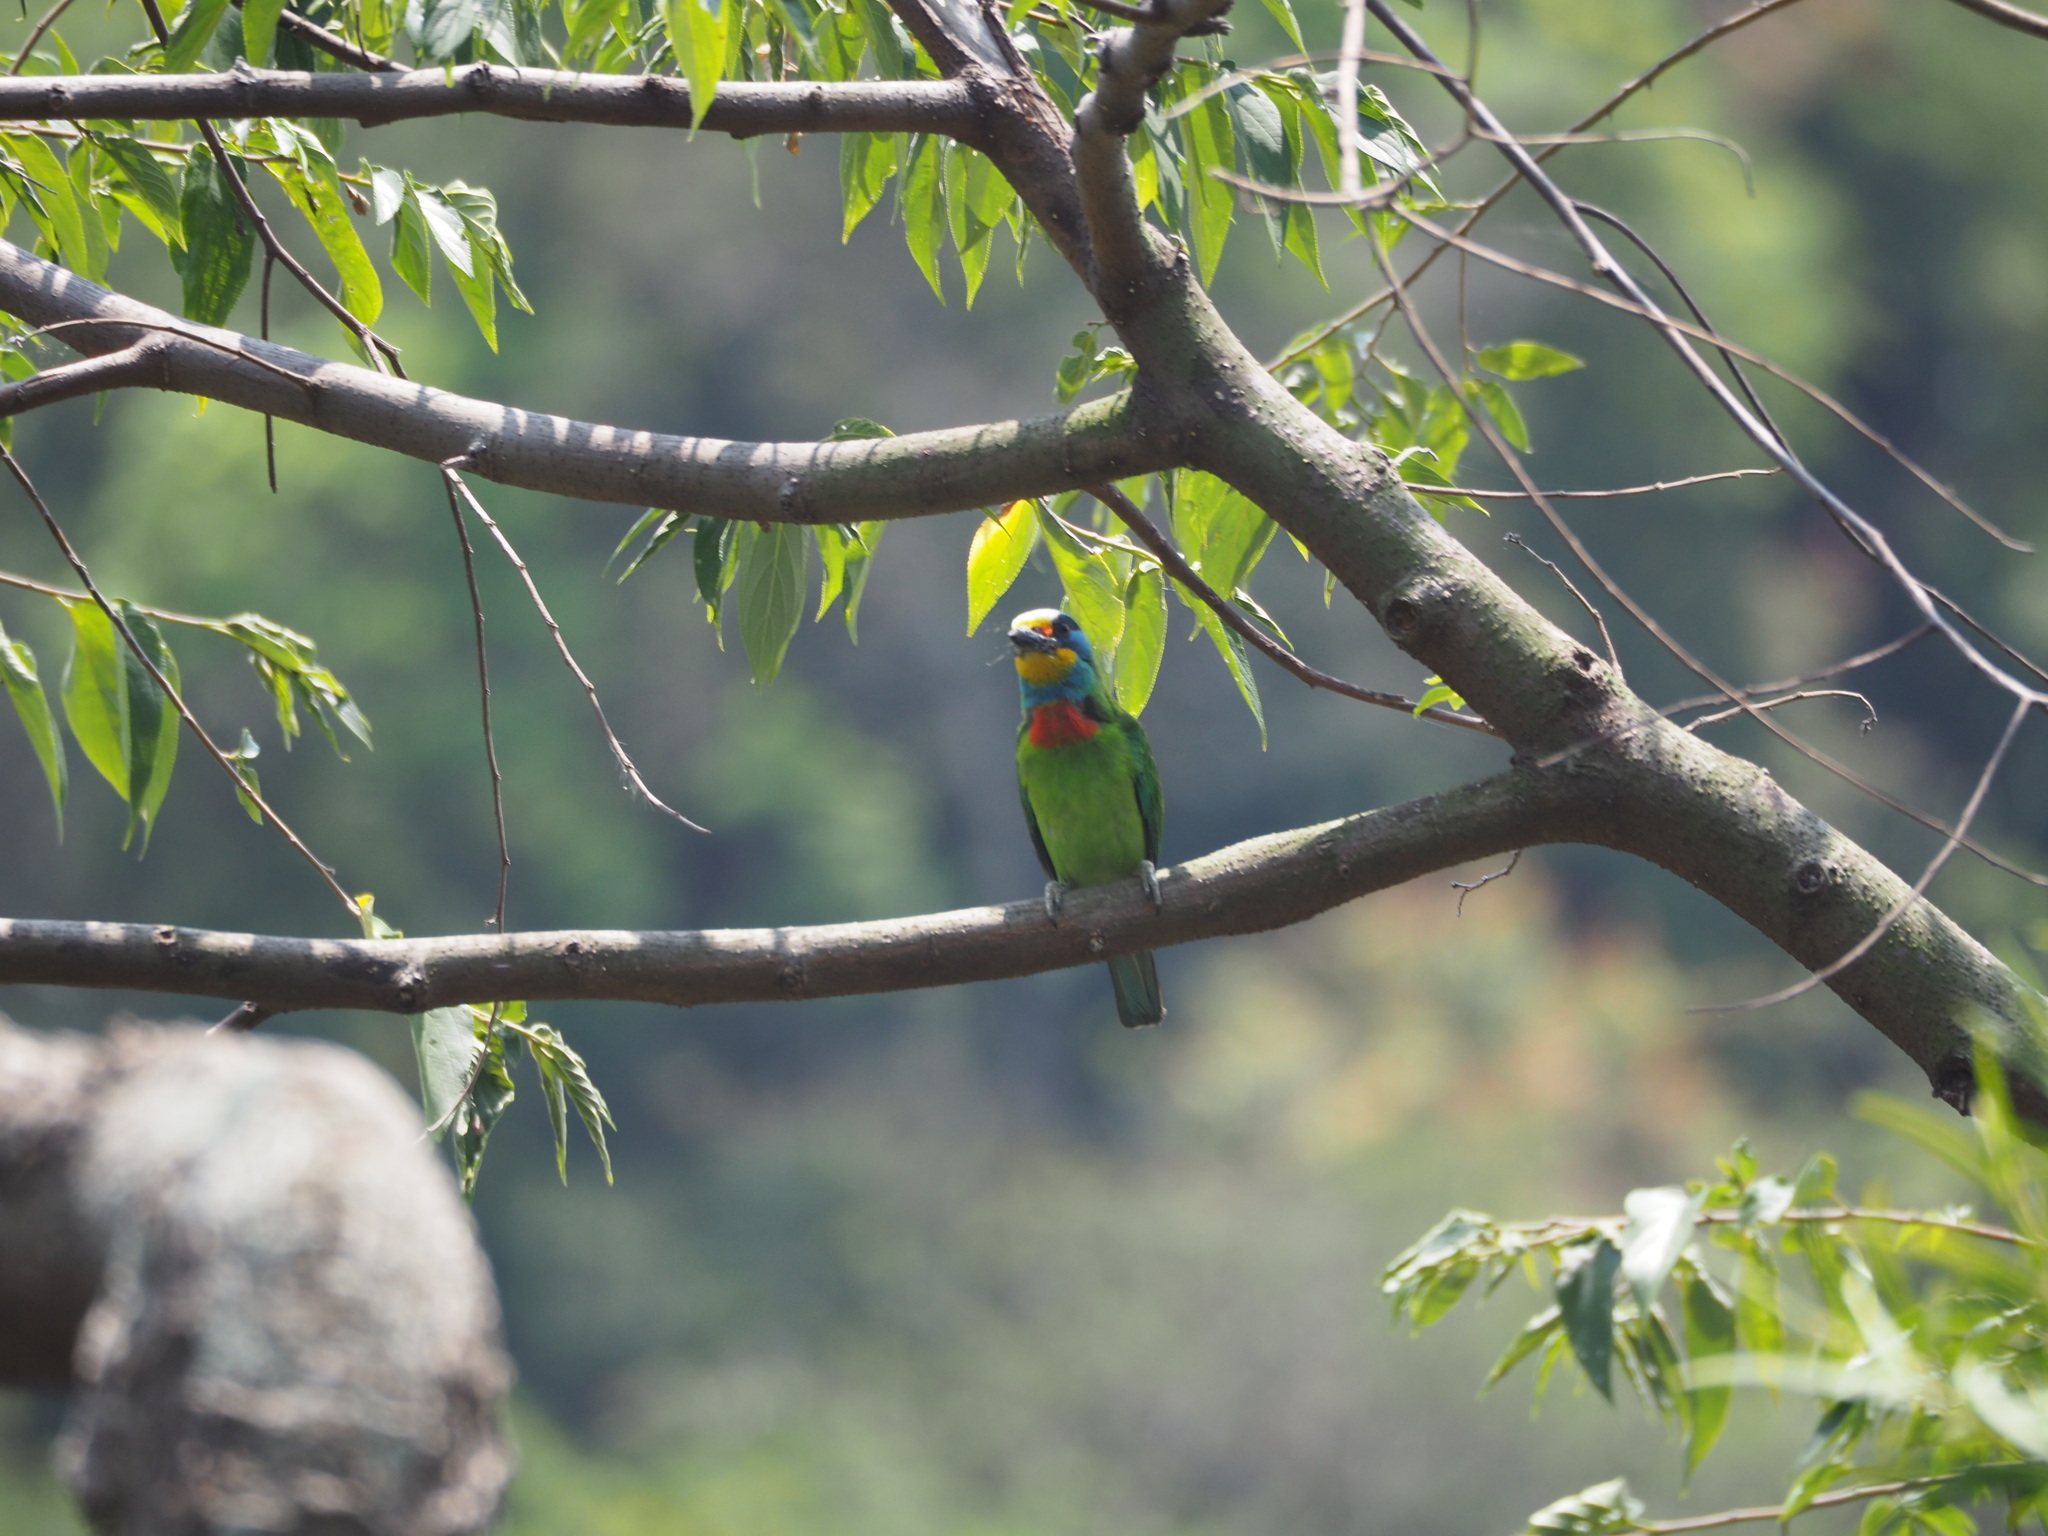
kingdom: Animalia
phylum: Chordata
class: Aves
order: Piciformes
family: Megalaimidae
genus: Psilopogon
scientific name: Psilopogon nuchalis
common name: Taiwan barbet
